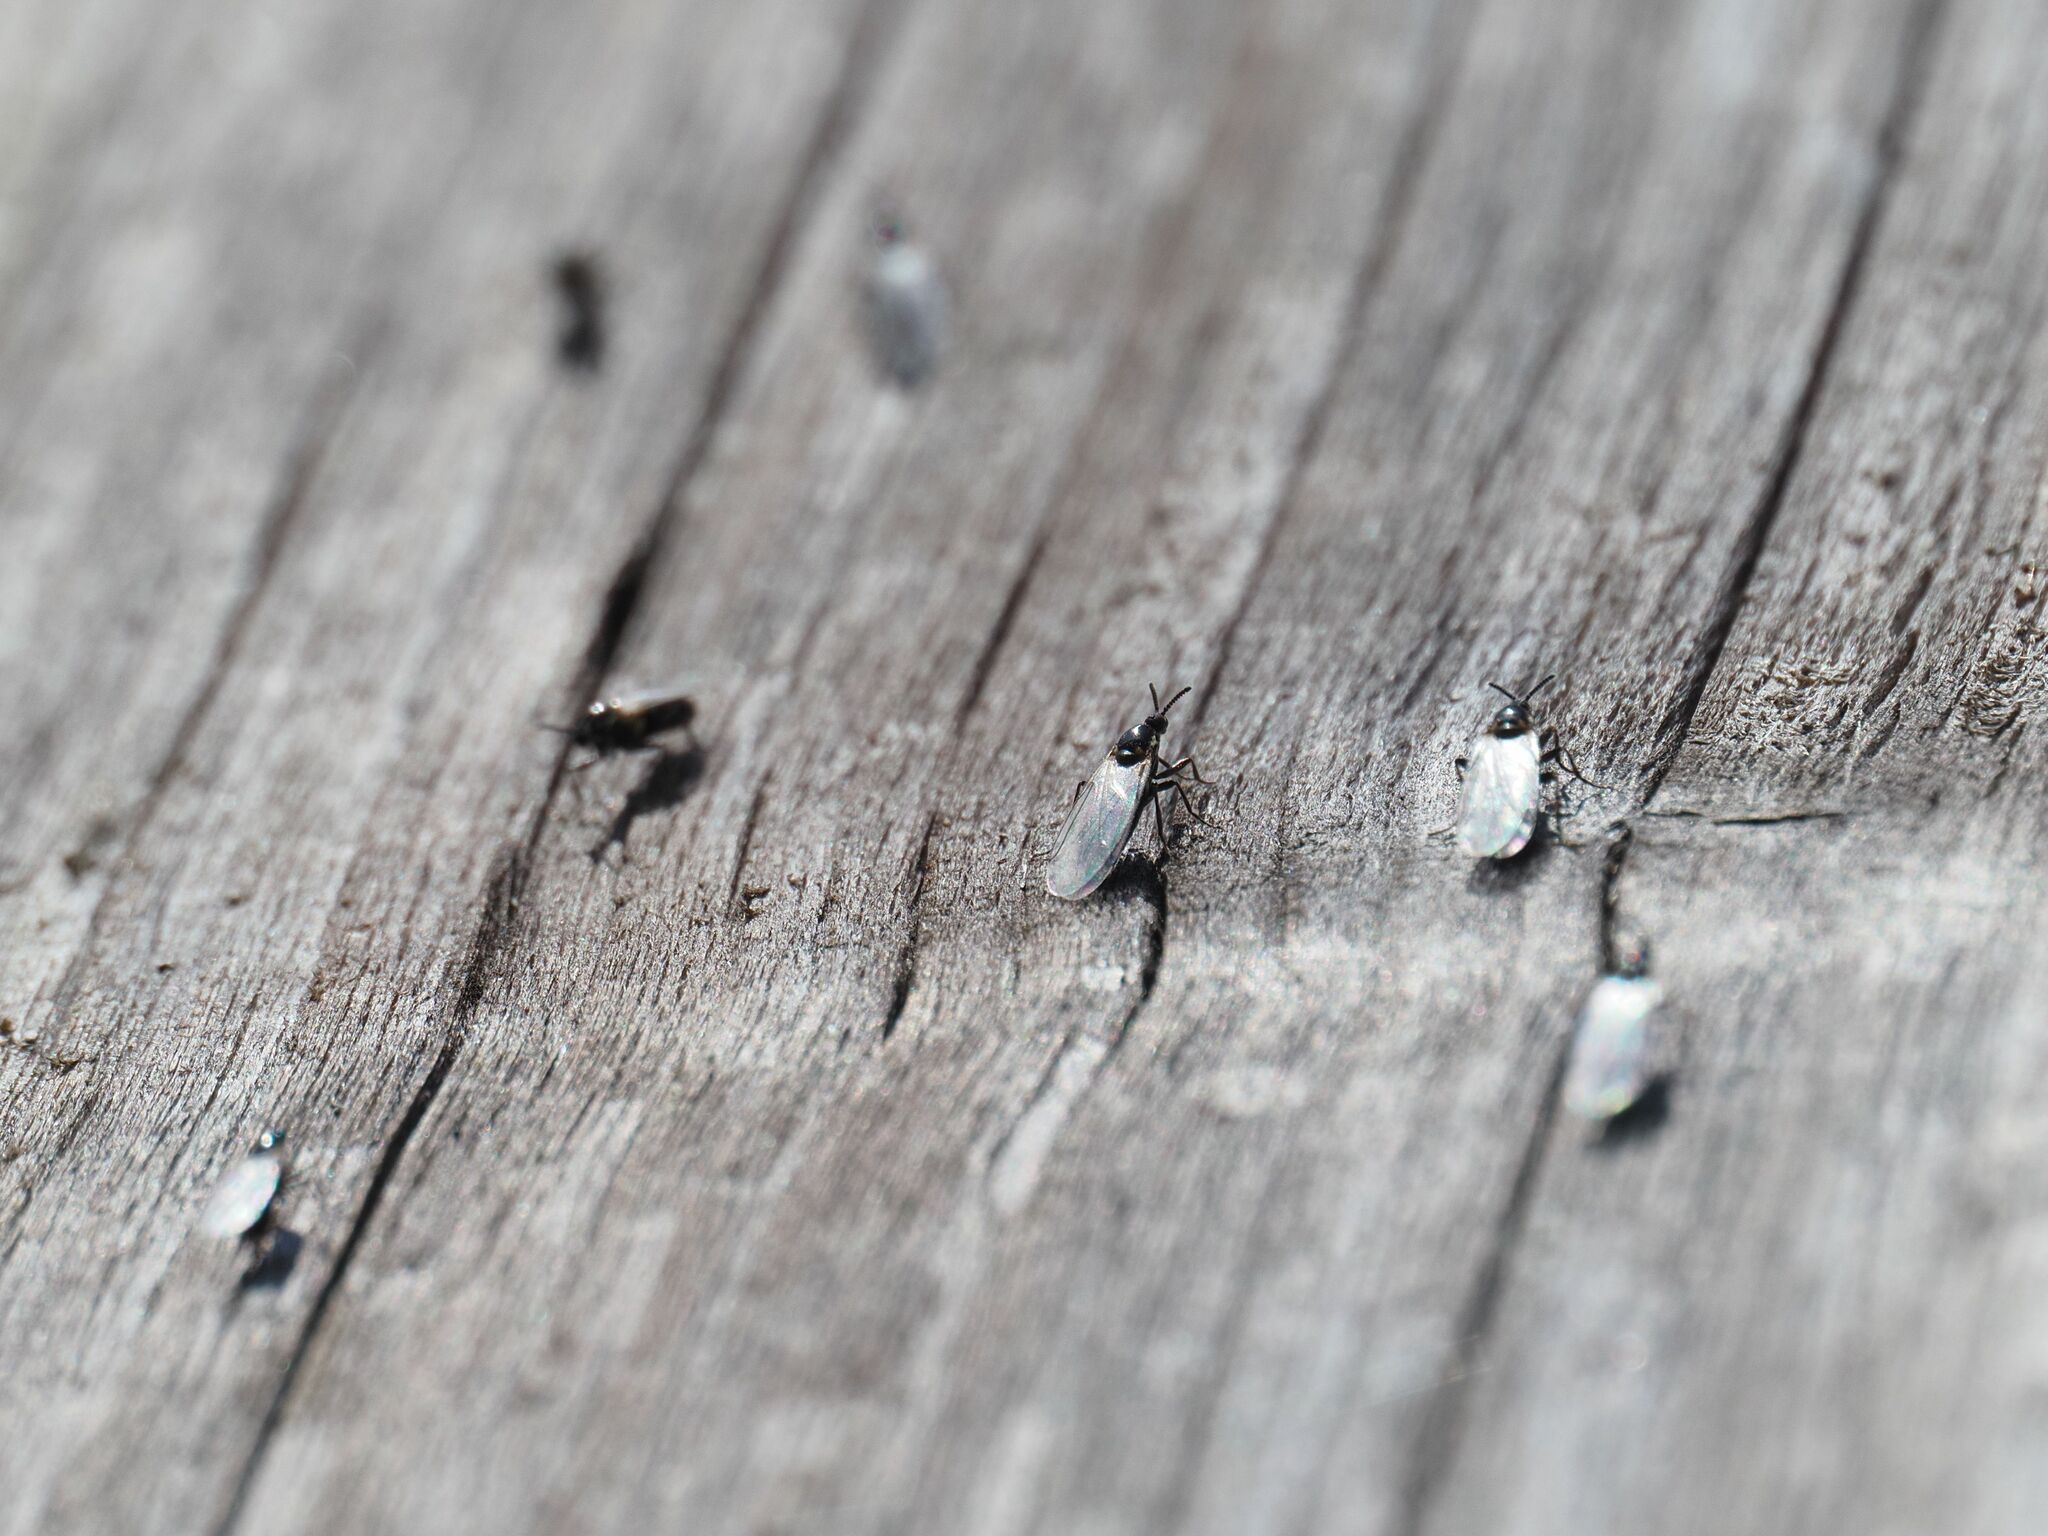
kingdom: Animalia
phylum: Arthropoda
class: Insecta
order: Diptera
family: Scatopsidae
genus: Scatopse
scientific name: Scatopse notata
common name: Minute black scavenger fly
